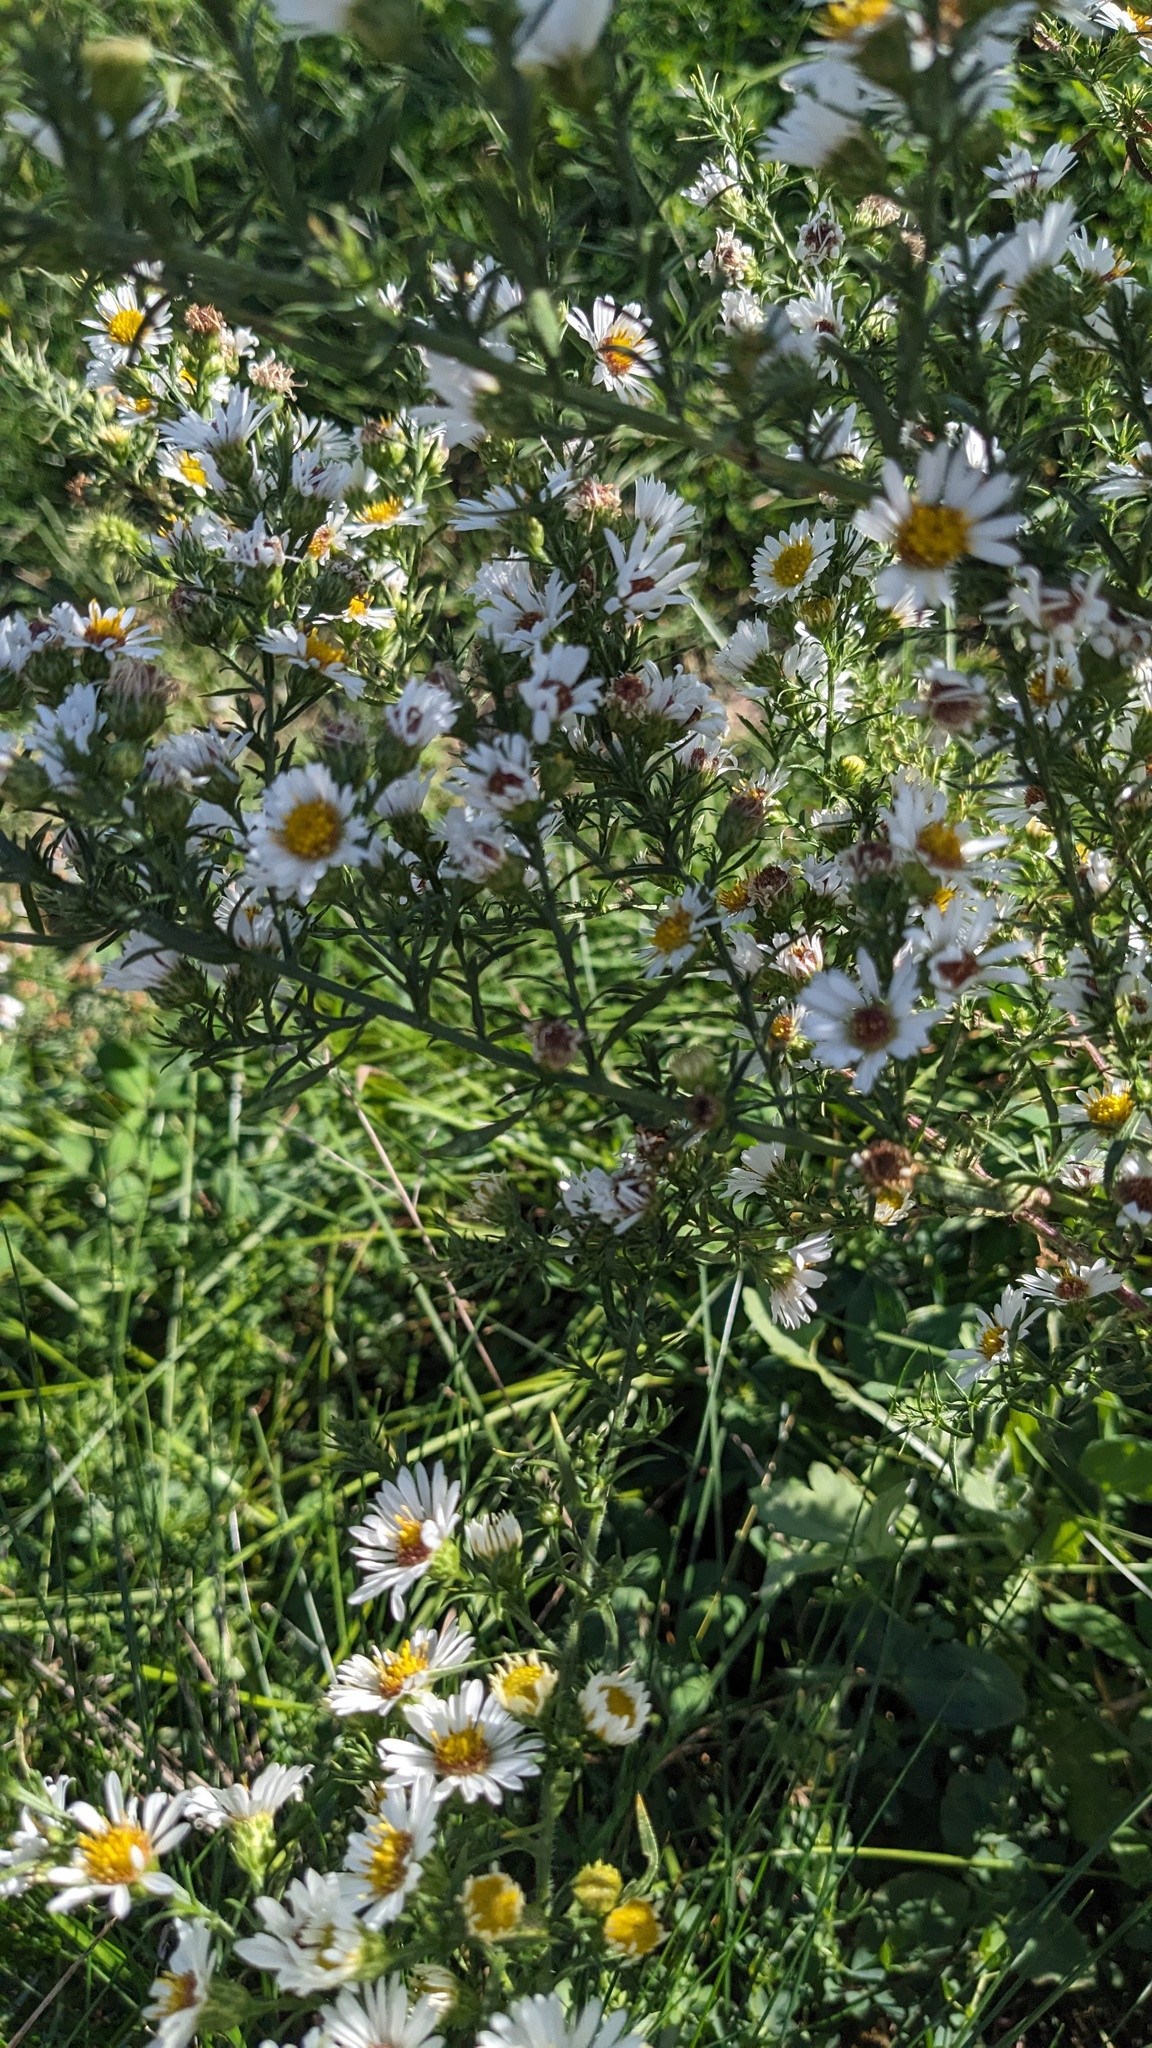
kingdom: Plantae
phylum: Tracheophyta
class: Magnoliopsida
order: Asterales
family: Asteraceae
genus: Symphyotrichum
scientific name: Symphyotrichum pilosum
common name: Awl aster
